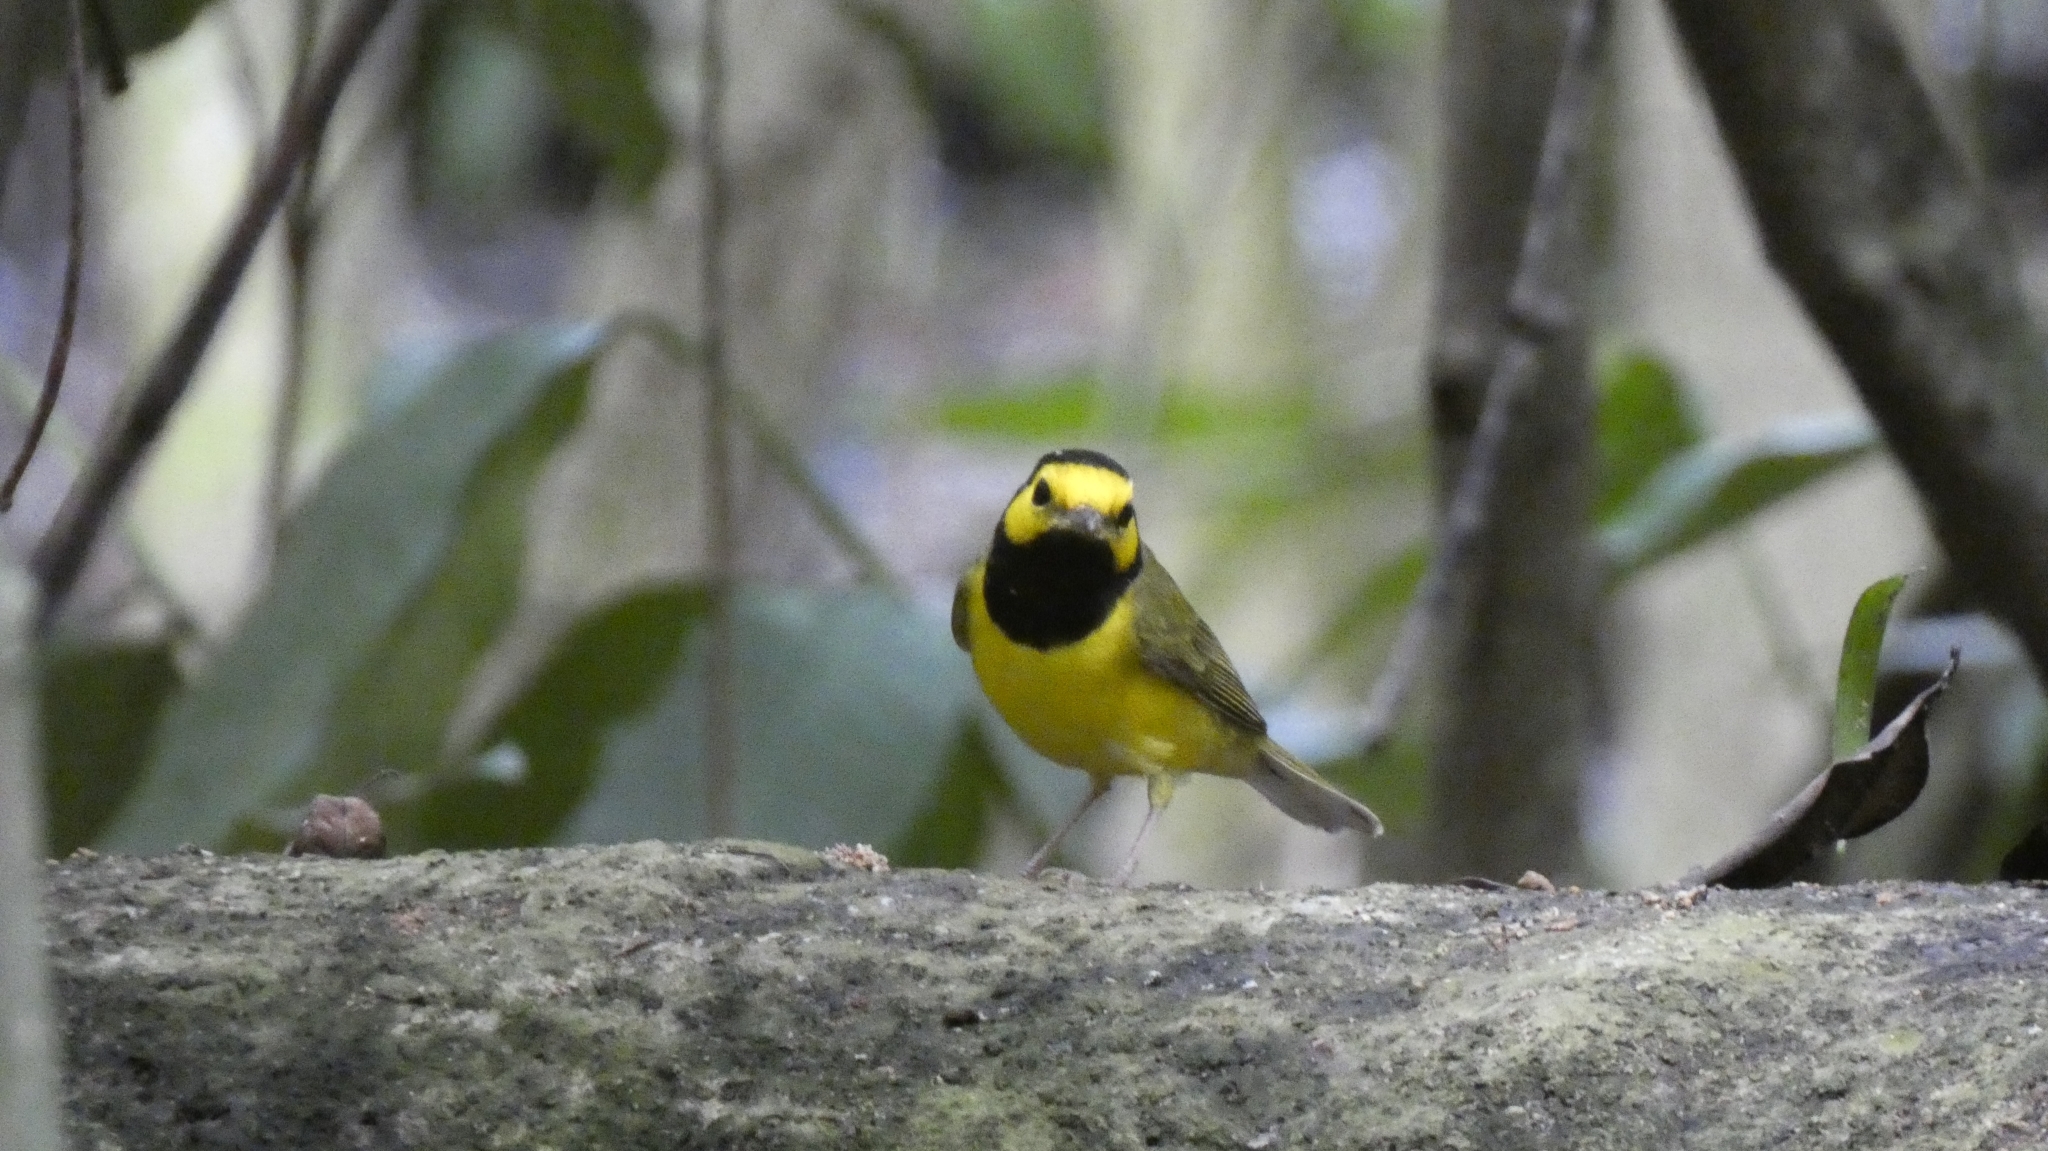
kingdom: Animalia
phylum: Chordata
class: Aves
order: Passeriformes
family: Parulidae
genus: Setophaga
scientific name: Setophaga citrina
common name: Hooded warbler
